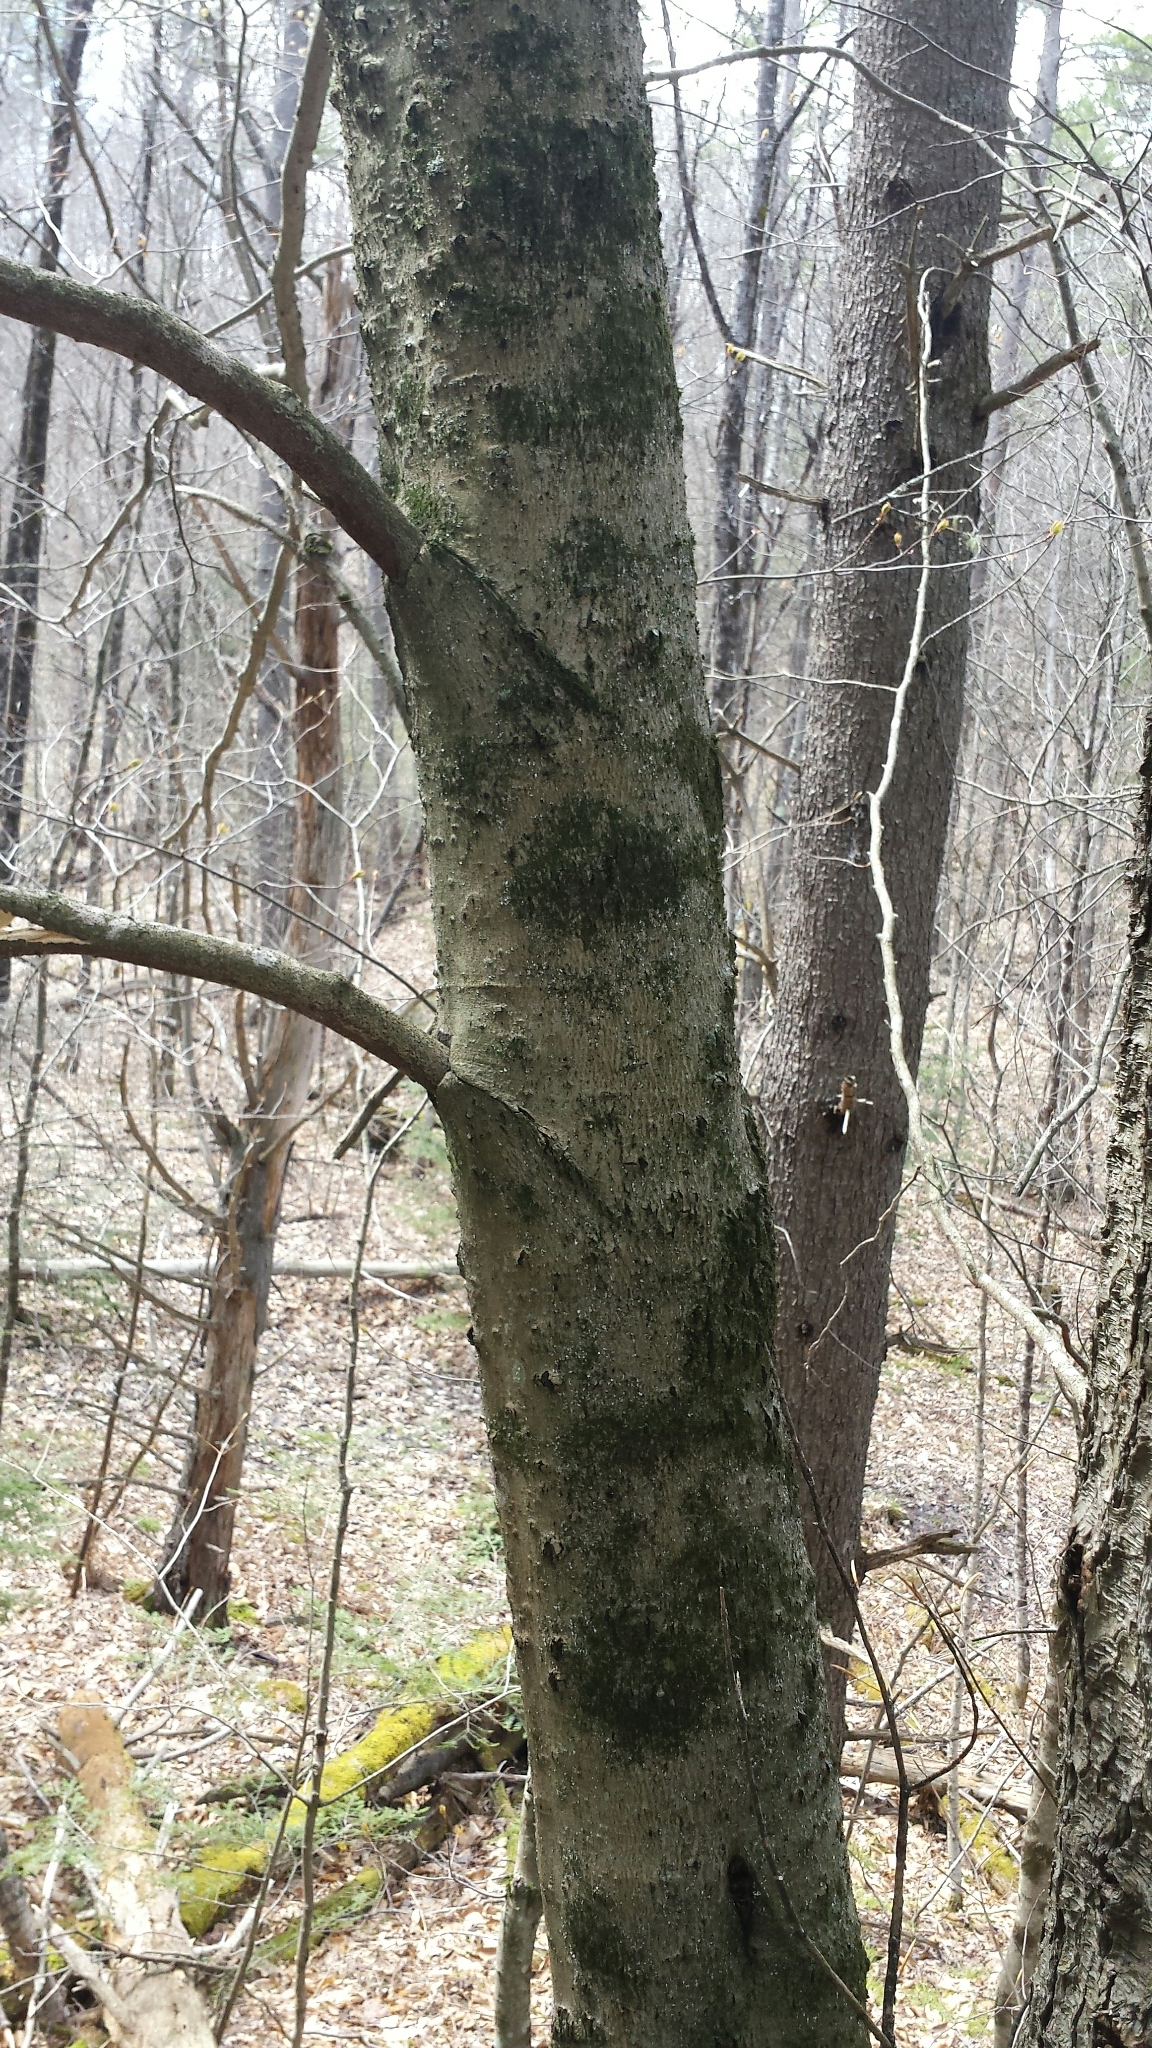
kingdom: Plantae
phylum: Tracheophyta
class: Magnoliopsida
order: Fagales
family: Fagaceae
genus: Fagus
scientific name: Fagus grandifolia
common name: American beech
